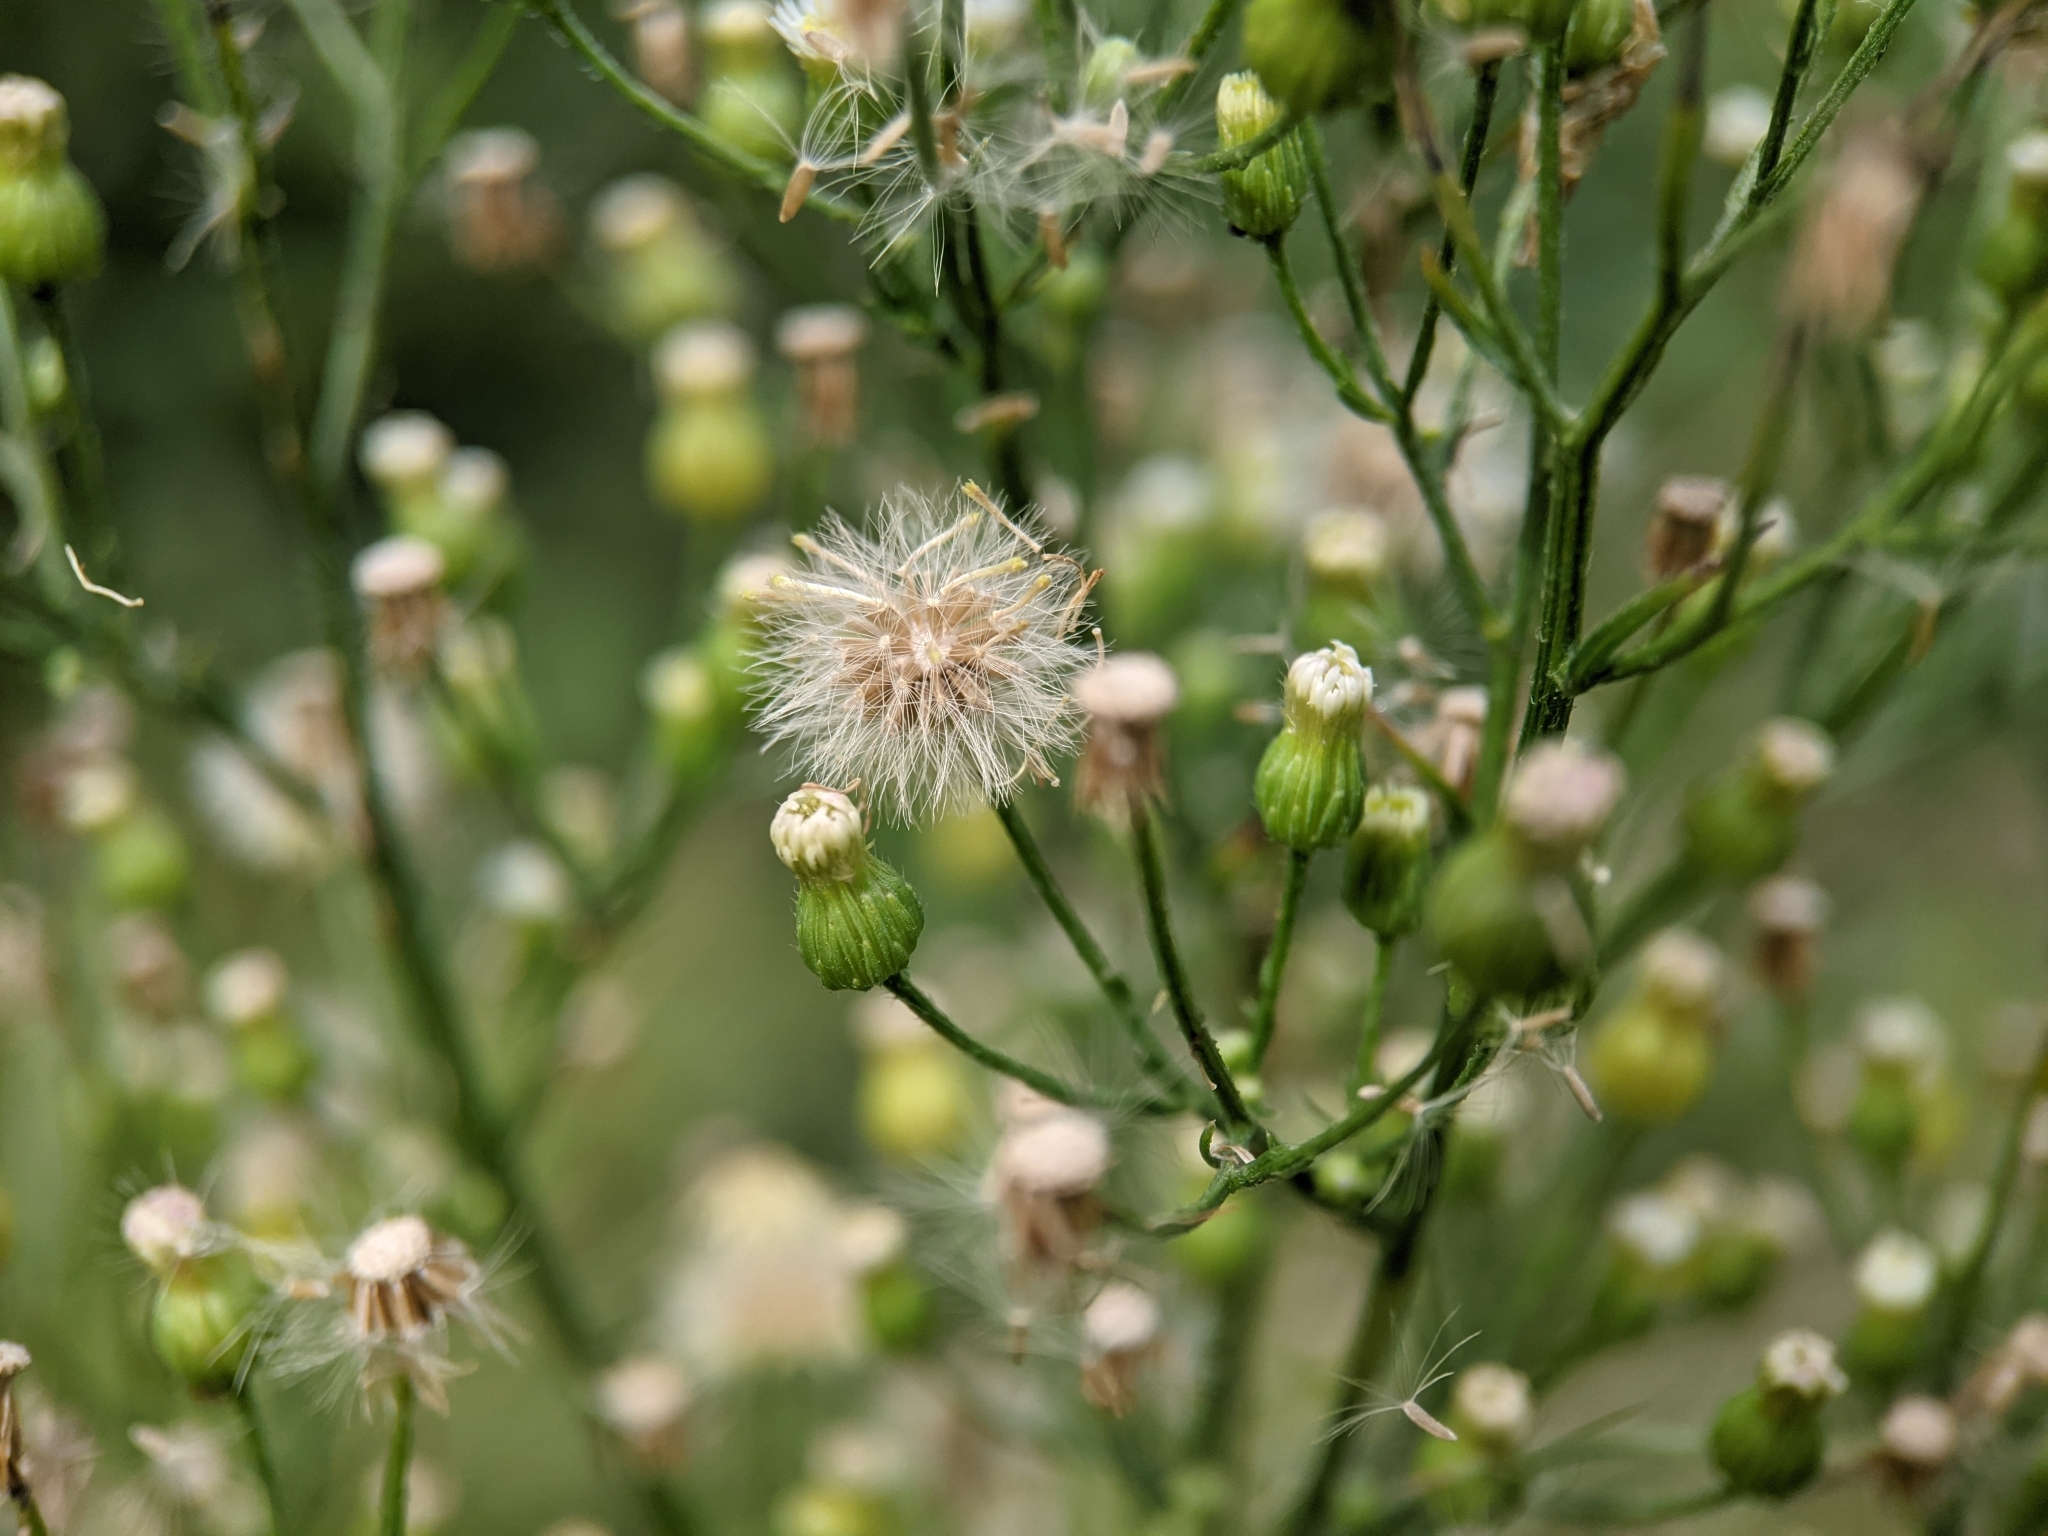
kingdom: Plantae
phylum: Tracheophyta
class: Magnoliopsida
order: Asterales
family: Asteraceae
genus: Erigeron
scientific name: Erigeron canadensis
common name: Canadian fleabane
